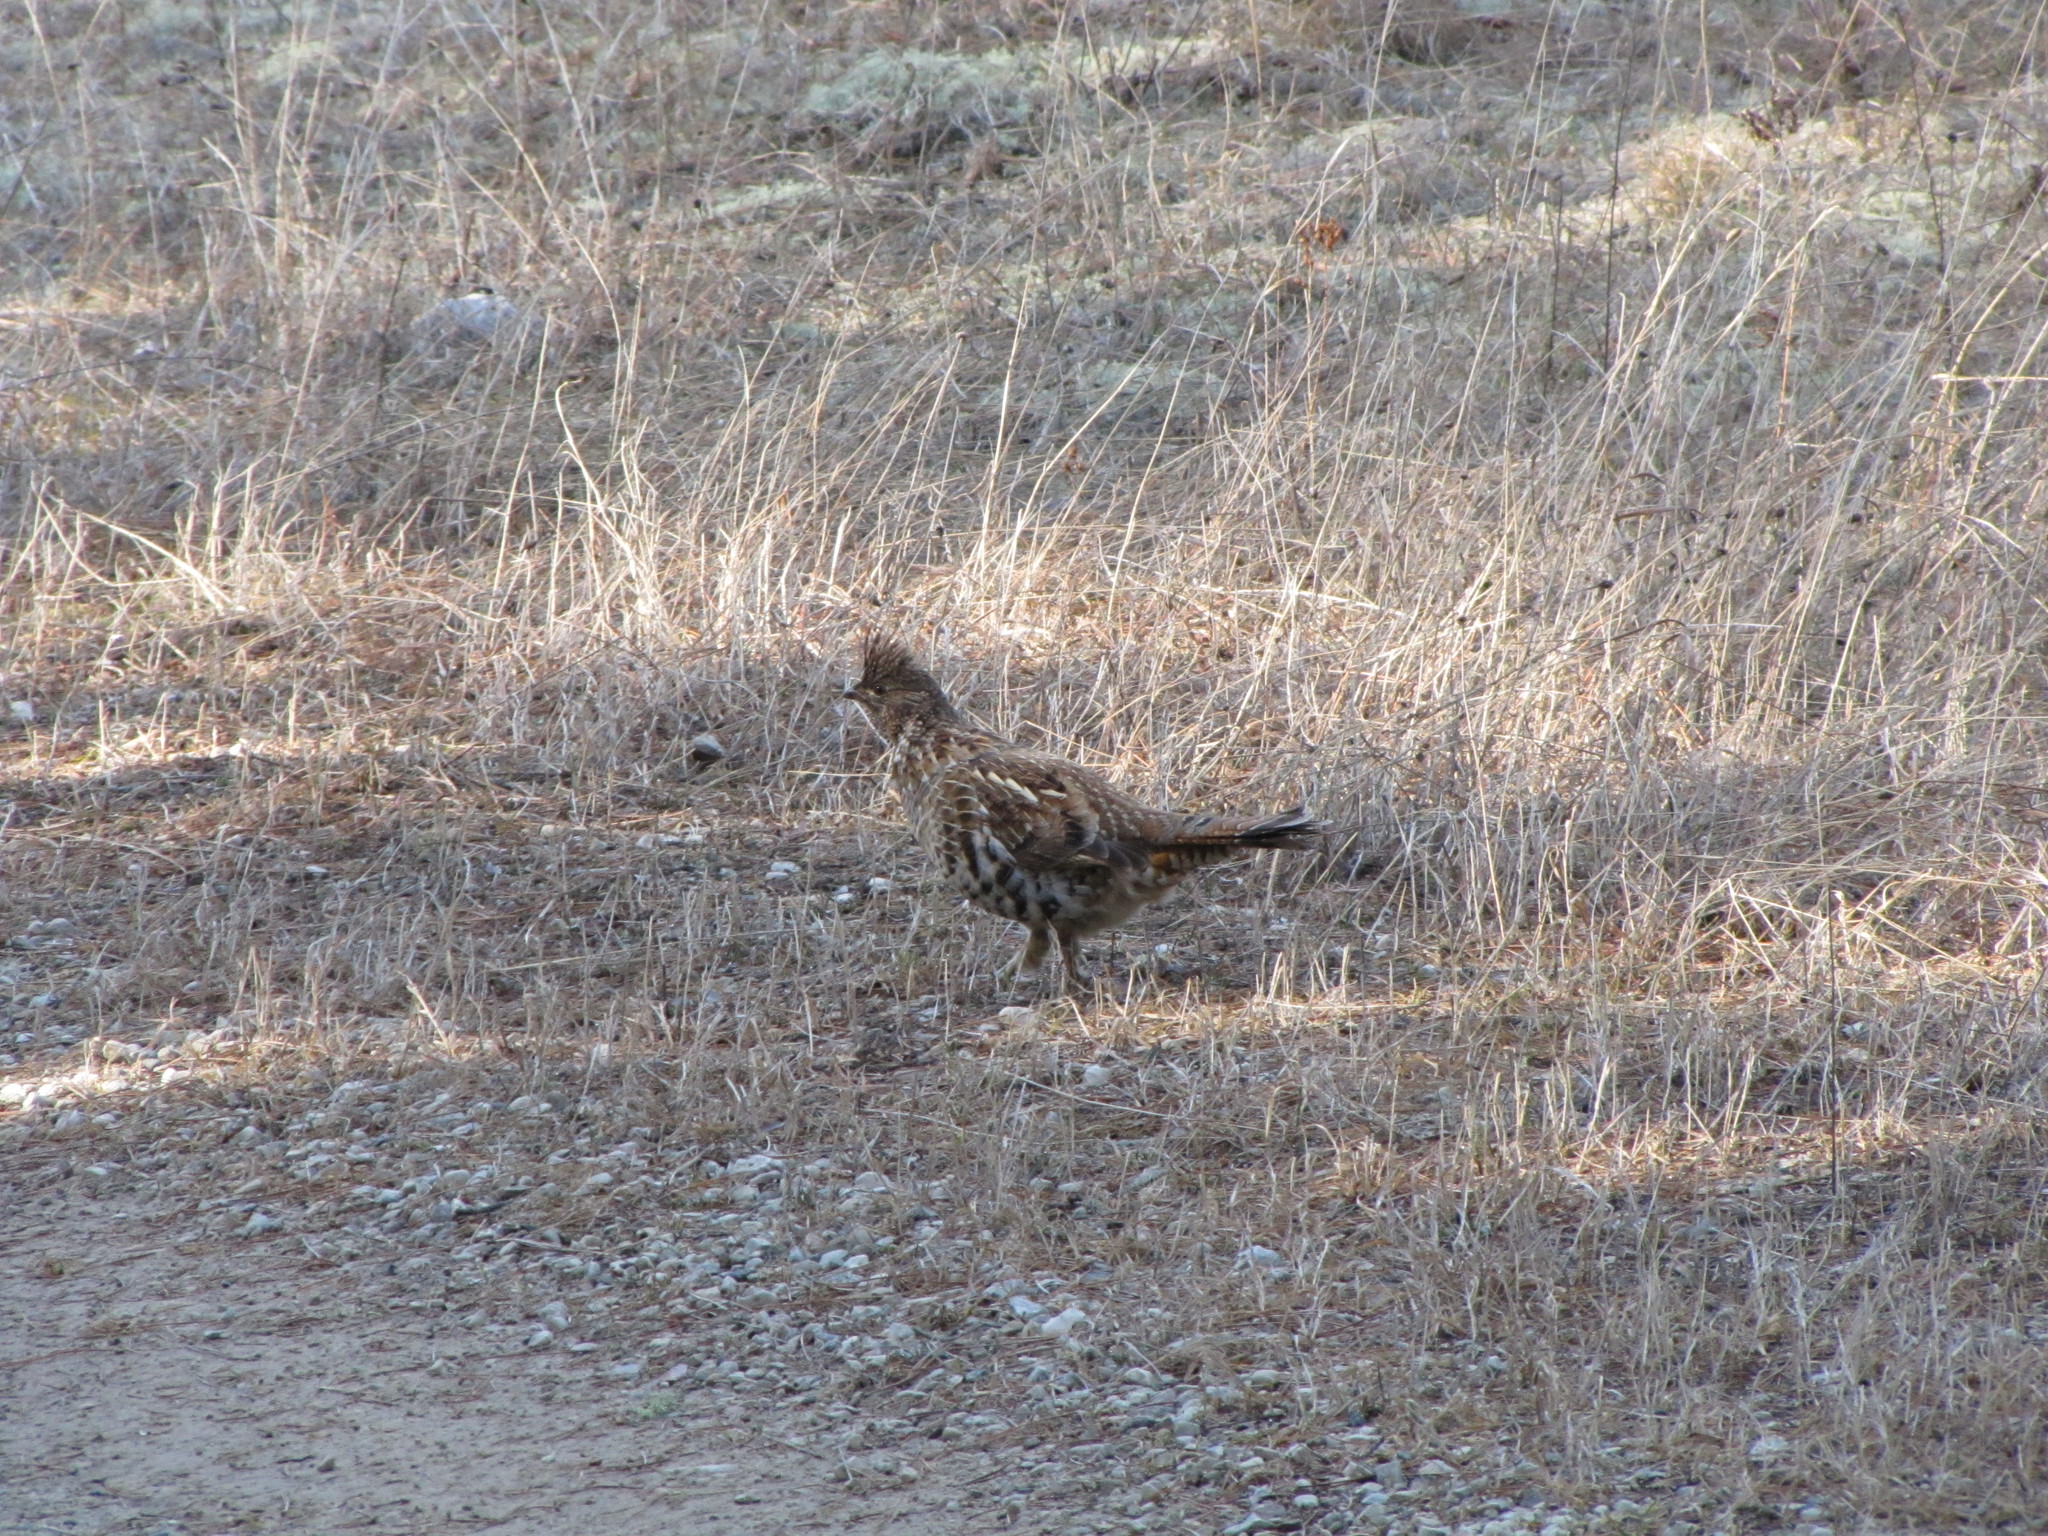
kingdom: Animalia
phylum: Chordata
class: Aves
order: Galliformes
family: Phasianidae
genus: Bonasa
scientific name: Bonasa umbellus
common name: Ruffed grouse
